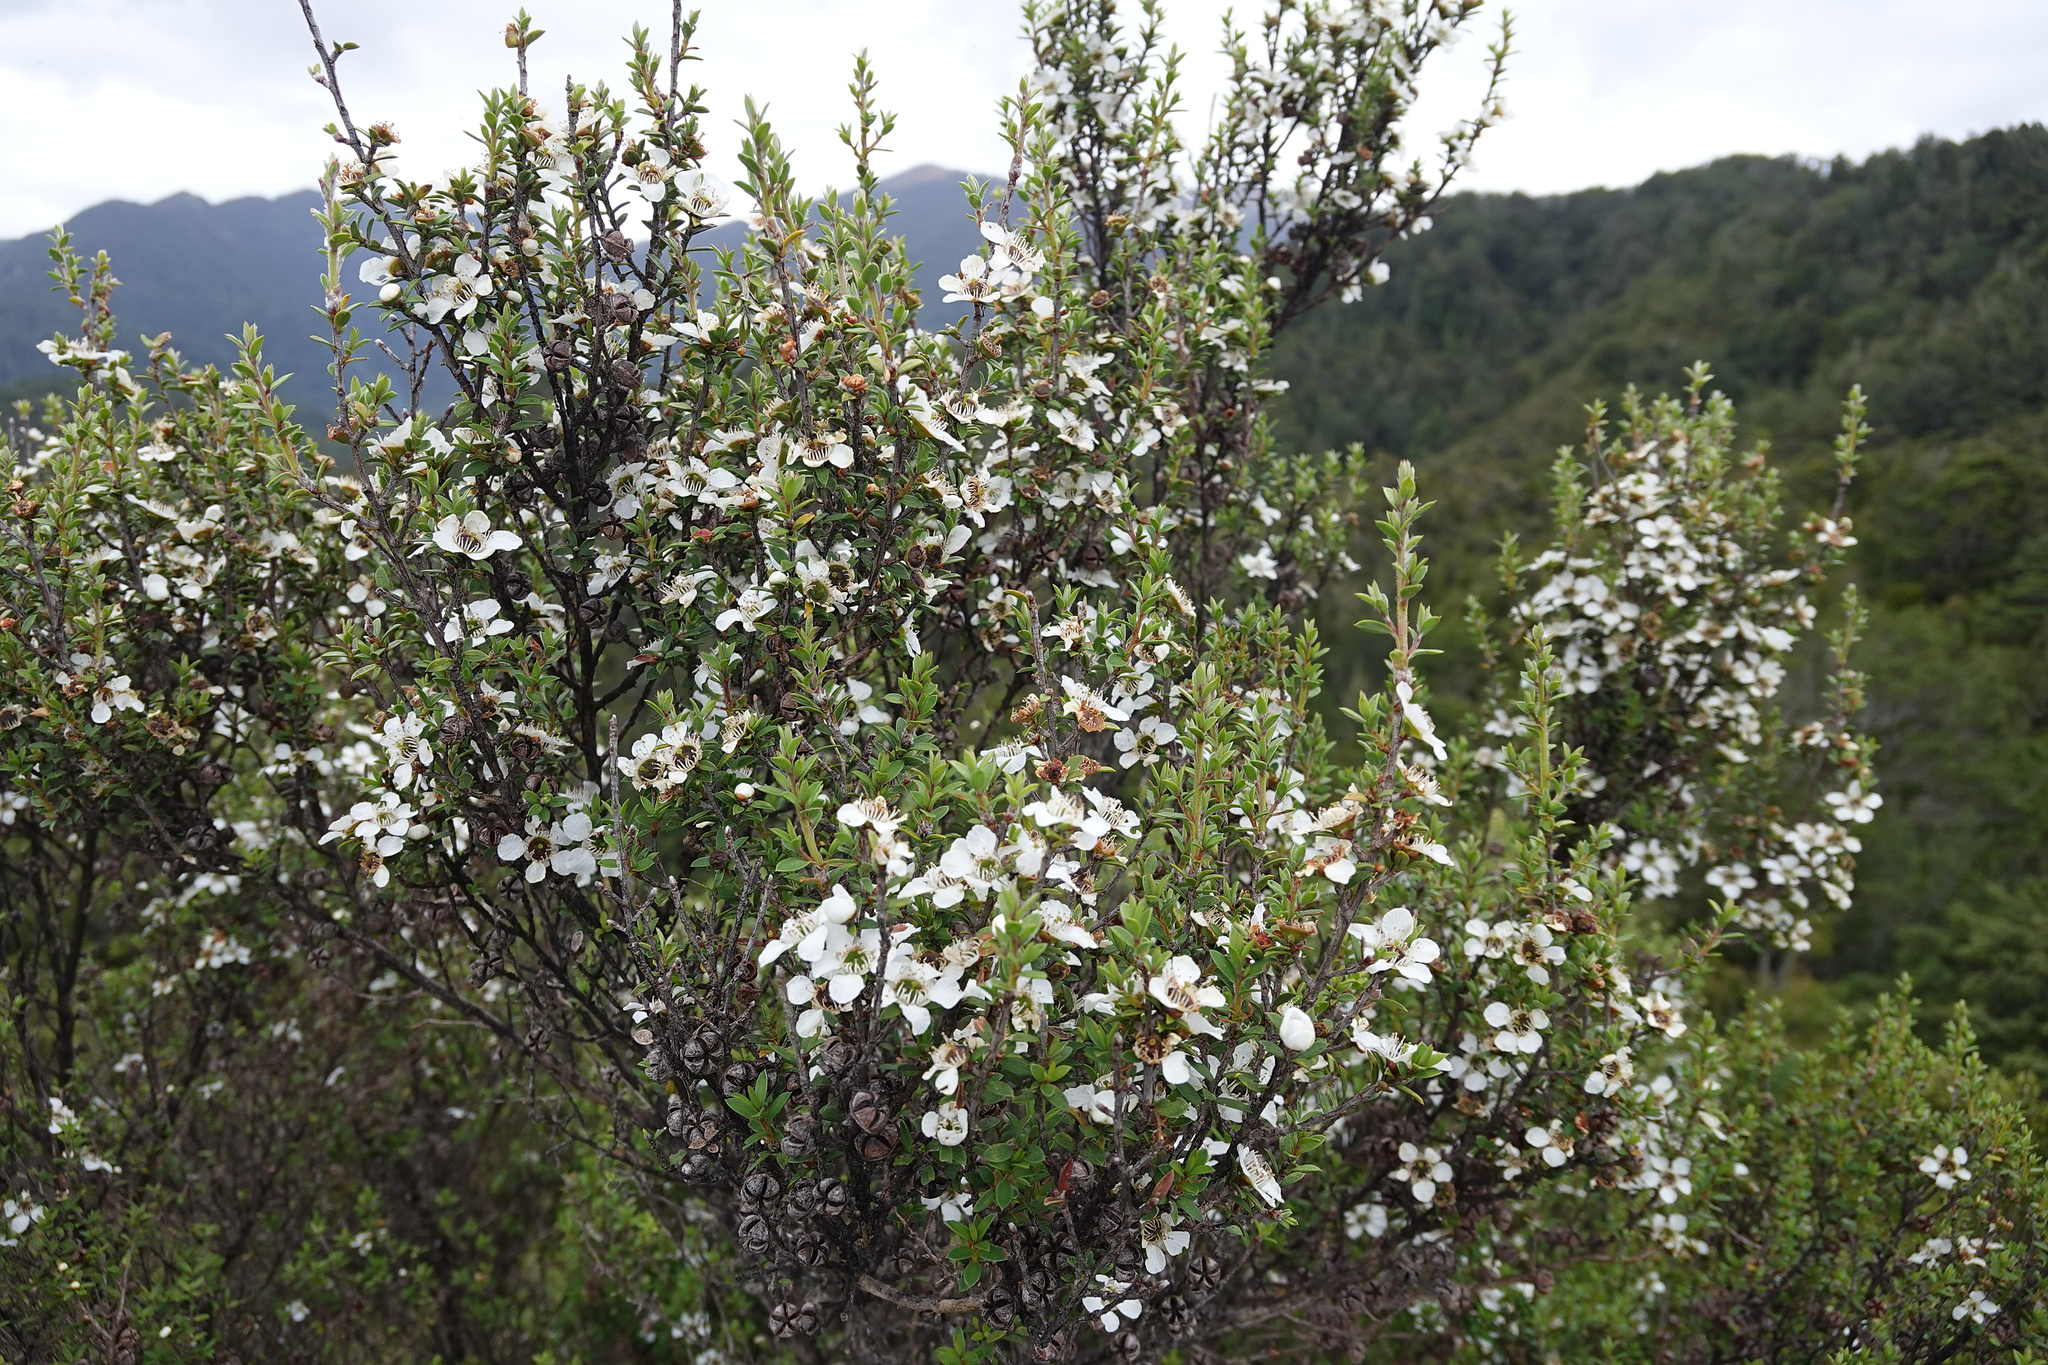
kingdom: Plantae
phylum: Tracheophyta
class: Magnoliopsida
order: Myrtales
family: Myrtaceae
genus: Leptospermum
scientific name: Leptospermum scoparium
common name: Broom tea-tree
